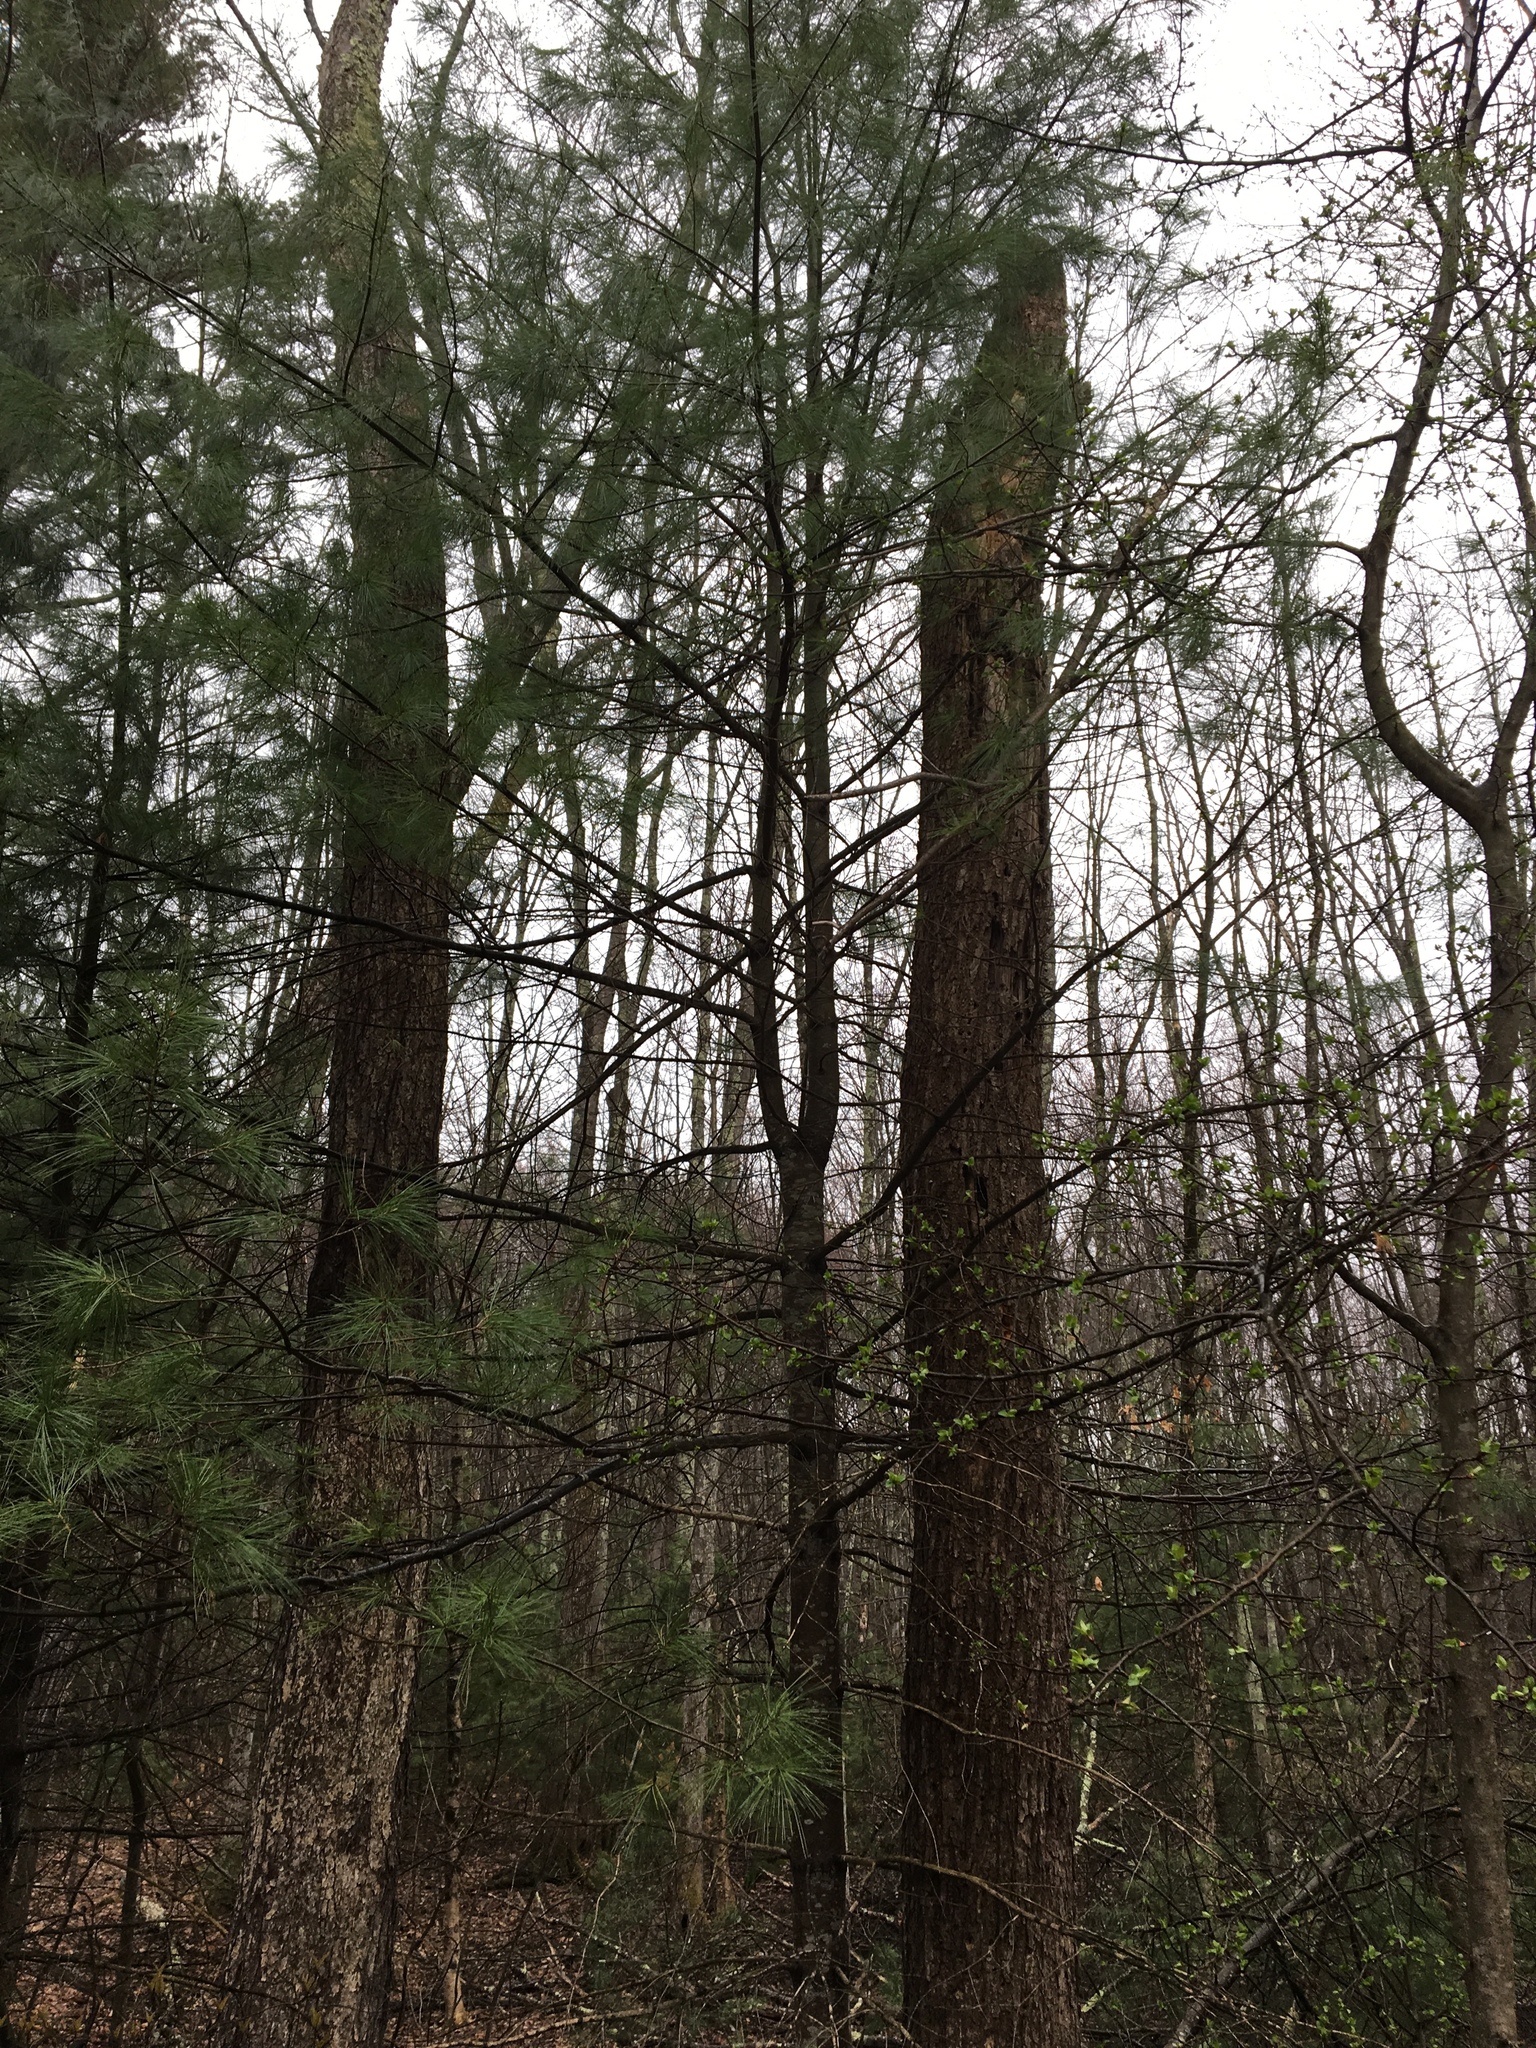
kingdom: Plantae
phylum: Tracheophyta
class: Pinopsida
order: Pinales
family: Pinaceae
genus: Pinus
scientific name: Pinus strobus
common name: Weymouth pine
